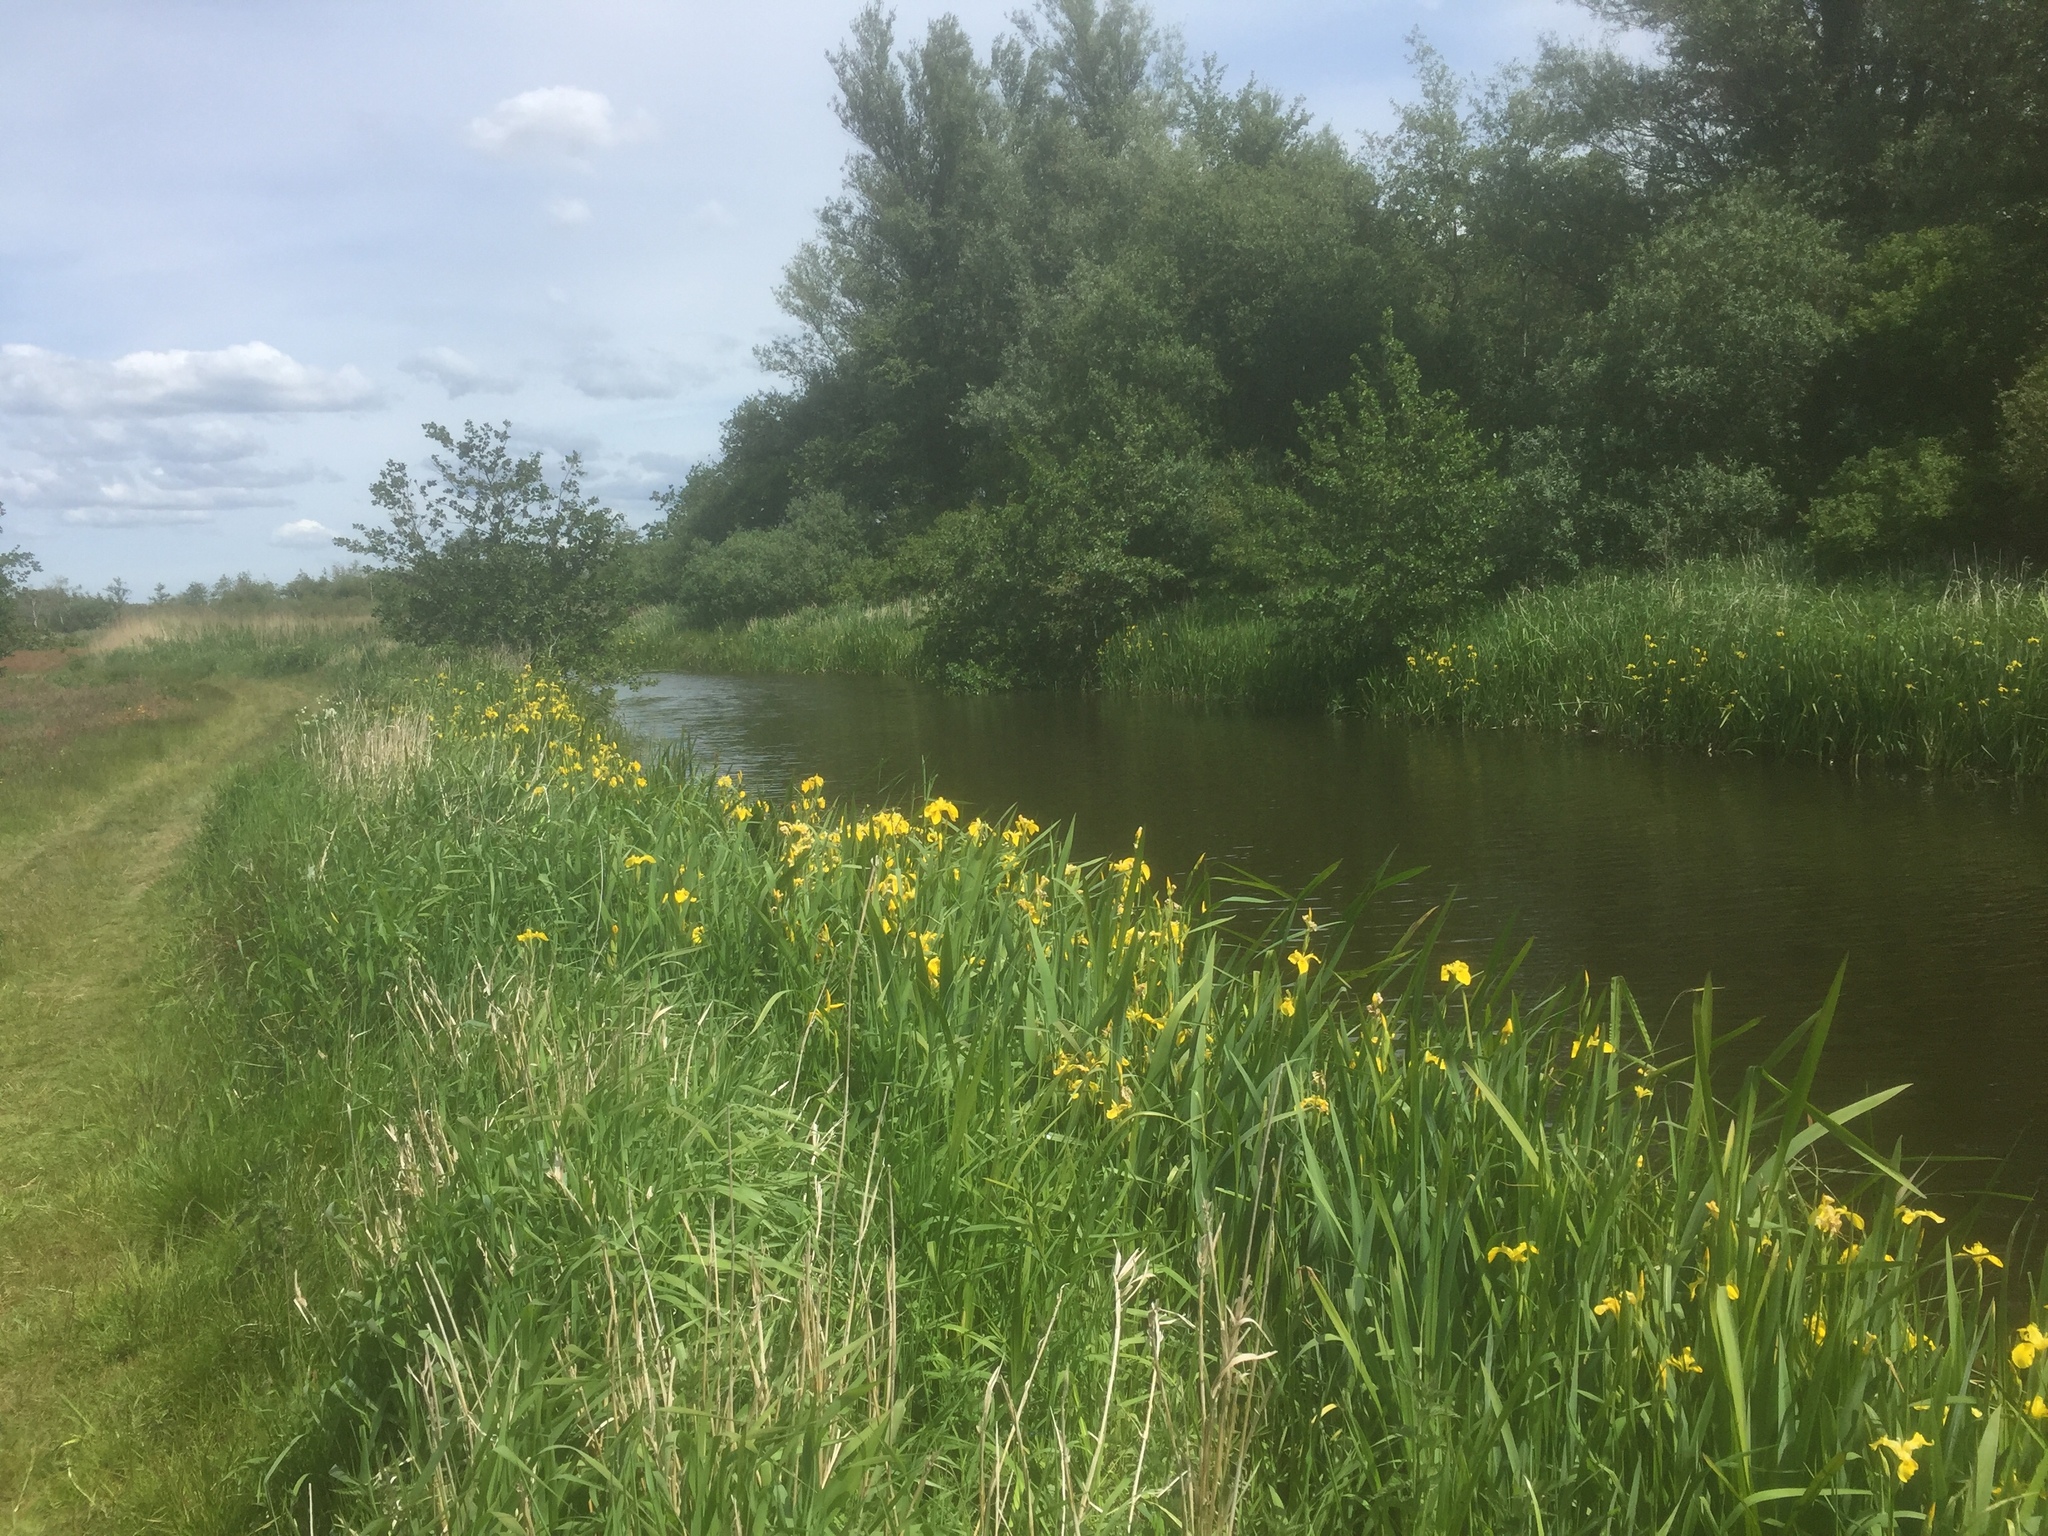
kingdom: Plantae
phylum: Tracheophyta
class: Liliopsida
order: Asparagales
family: Iridaceae
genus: Iris
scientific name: Iris pseudacorus
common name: Yellow flag
